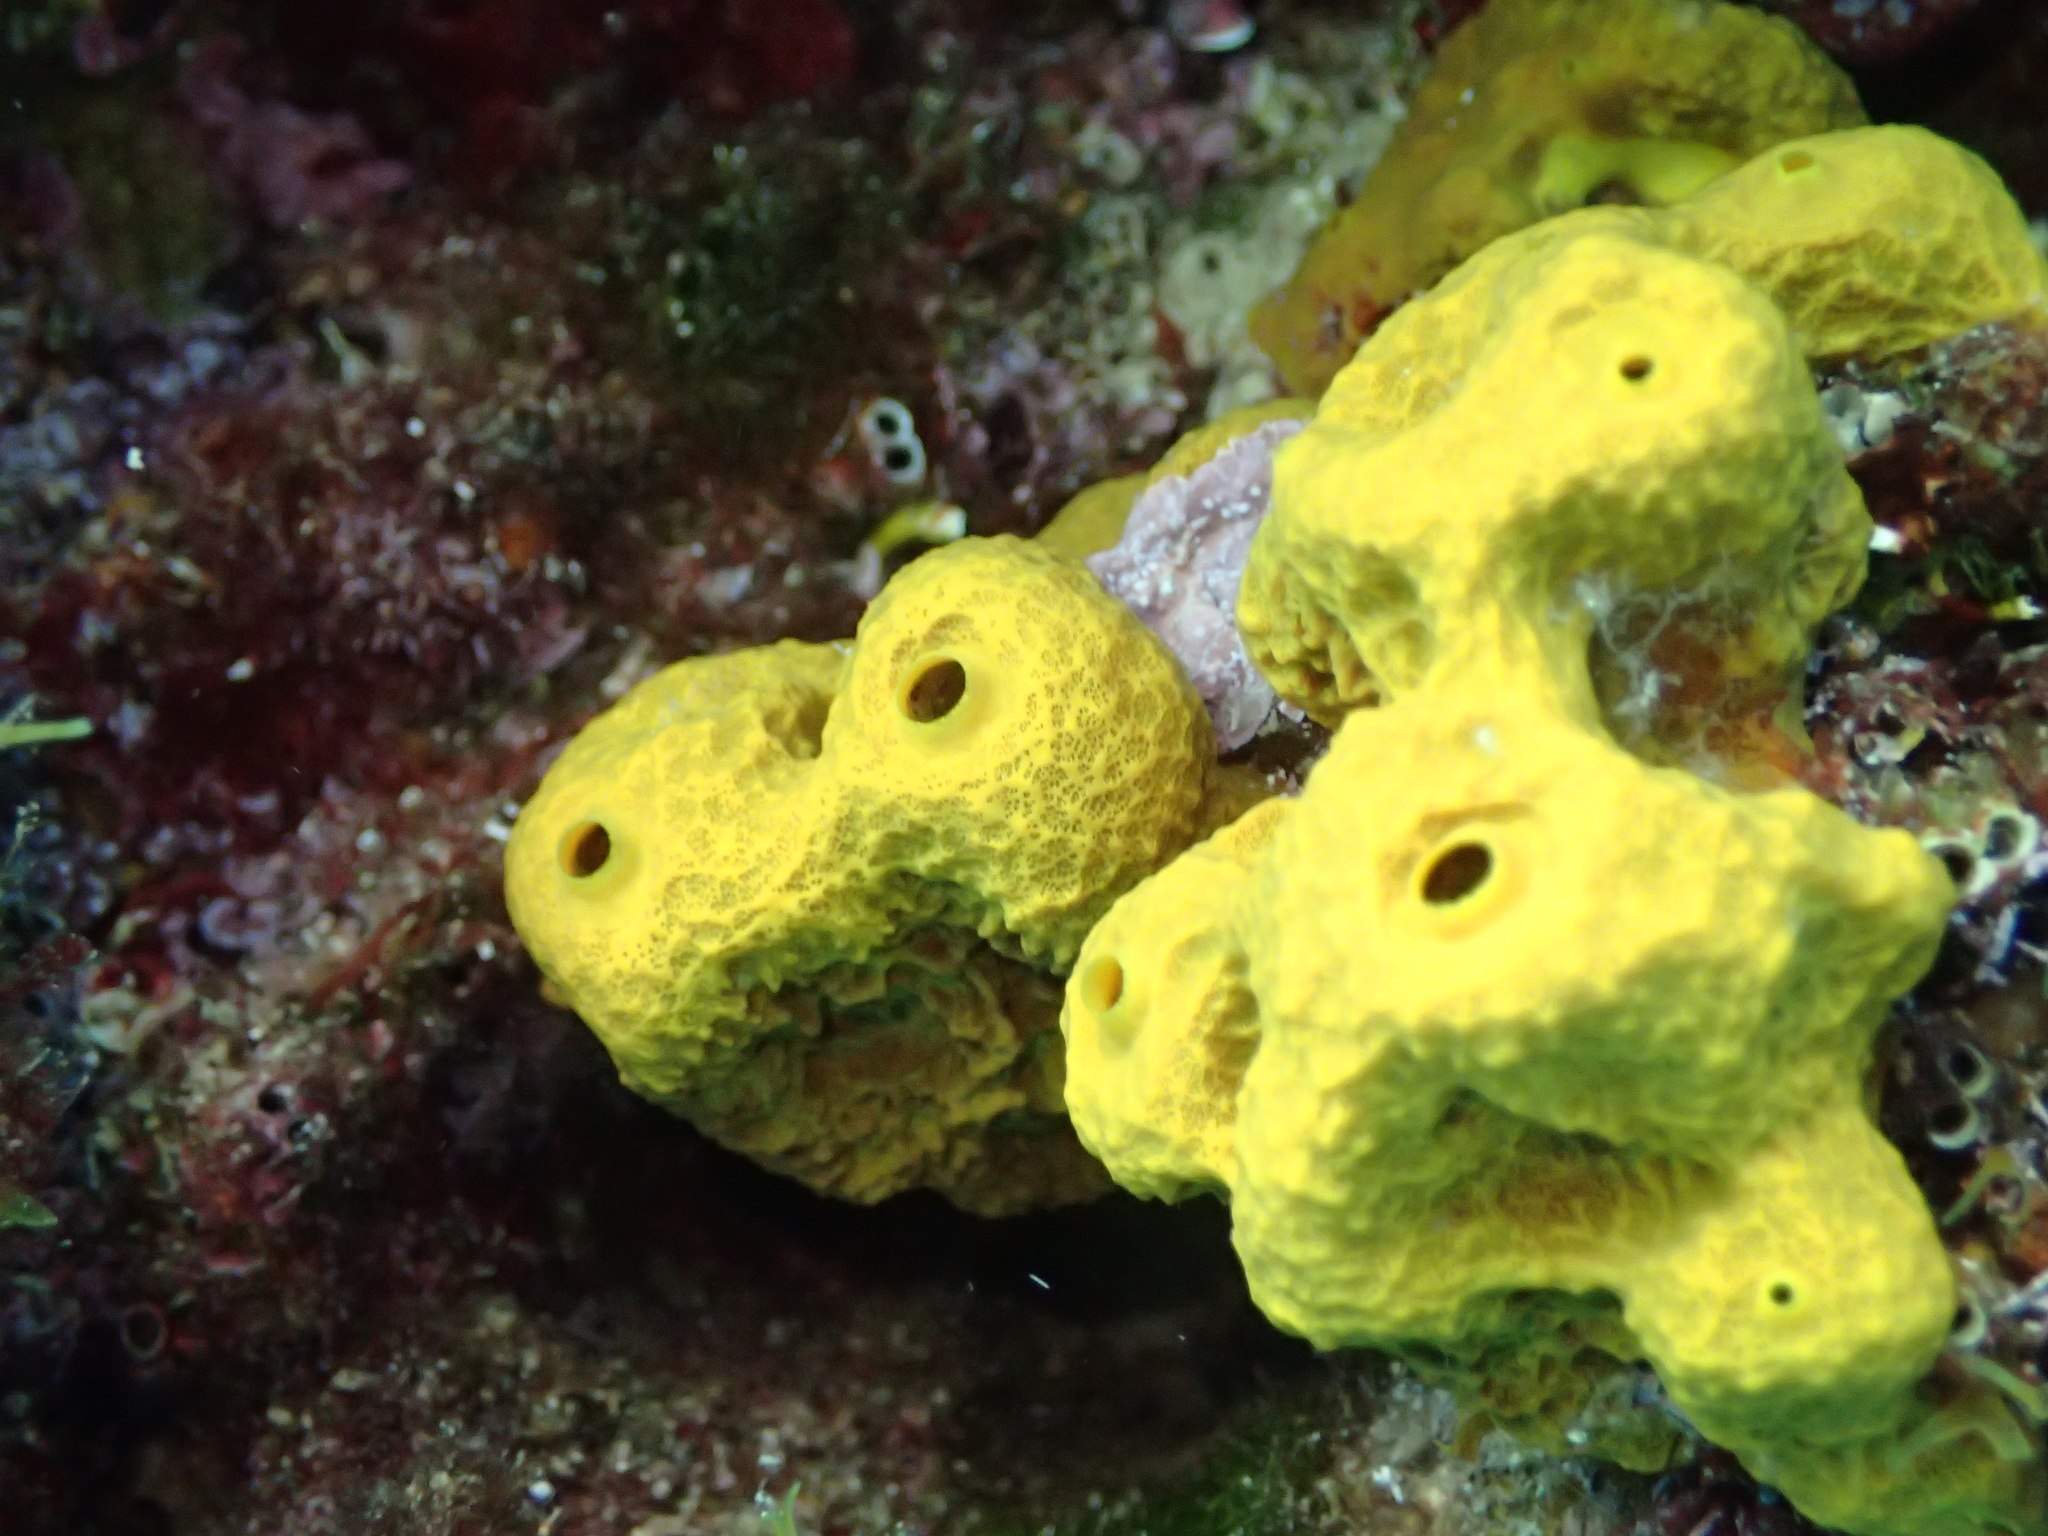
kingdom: Animalia
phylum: Porifera
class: Demospongiae
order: Verongiida
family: Aplysinidae
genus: Aplysina
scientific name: Aplysina aerophoba
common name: Aureate sponge
